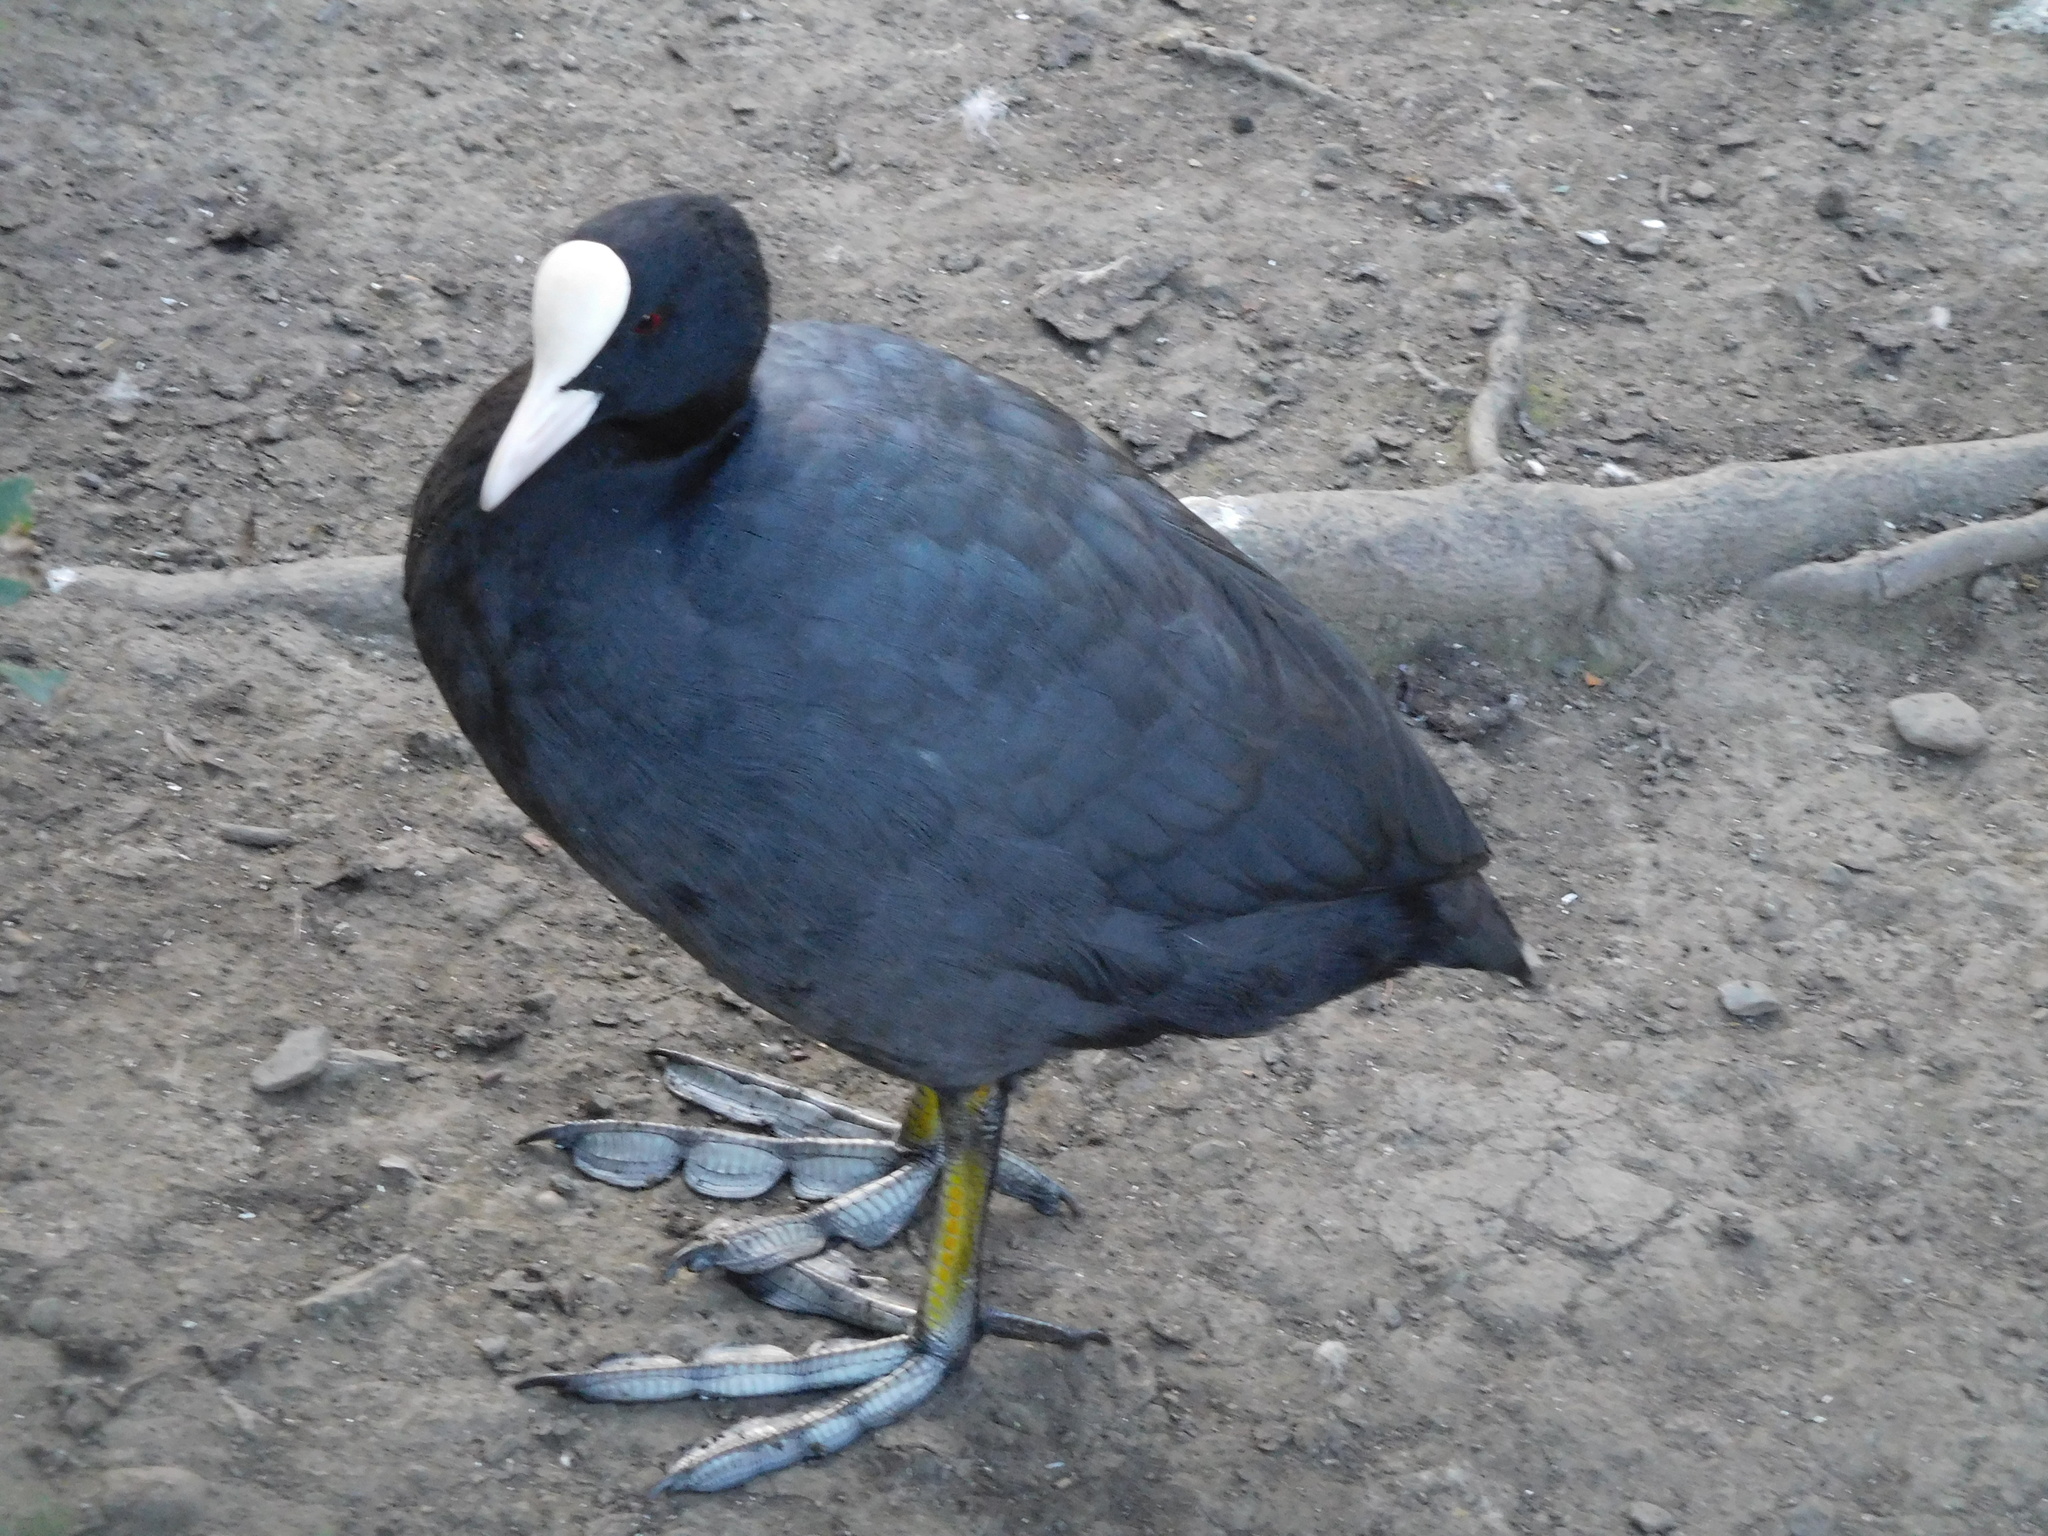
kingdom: Animalia
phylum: Chordata
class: Aves
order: Gruiformes
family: Rallidae
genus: Fulica
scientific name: Fulica atra
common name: Eurasian coot
